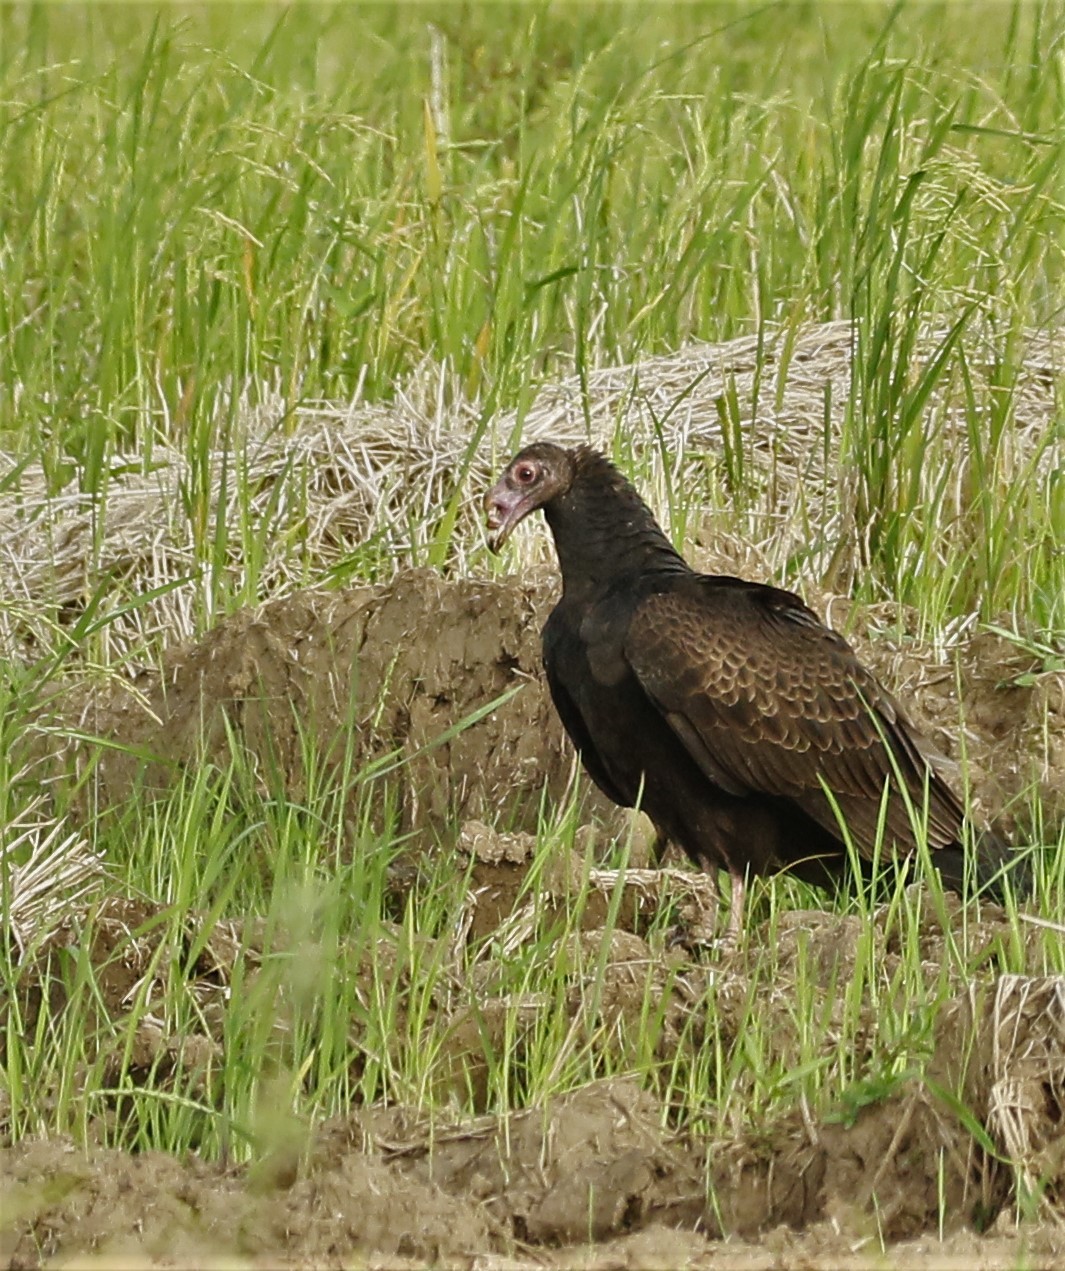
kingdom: Animalia
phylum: Chordata
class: Aves
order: Accipitriformes
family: Cathartidae
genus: Cathartes
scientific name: Cathartes aura
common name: Turkey vulture
